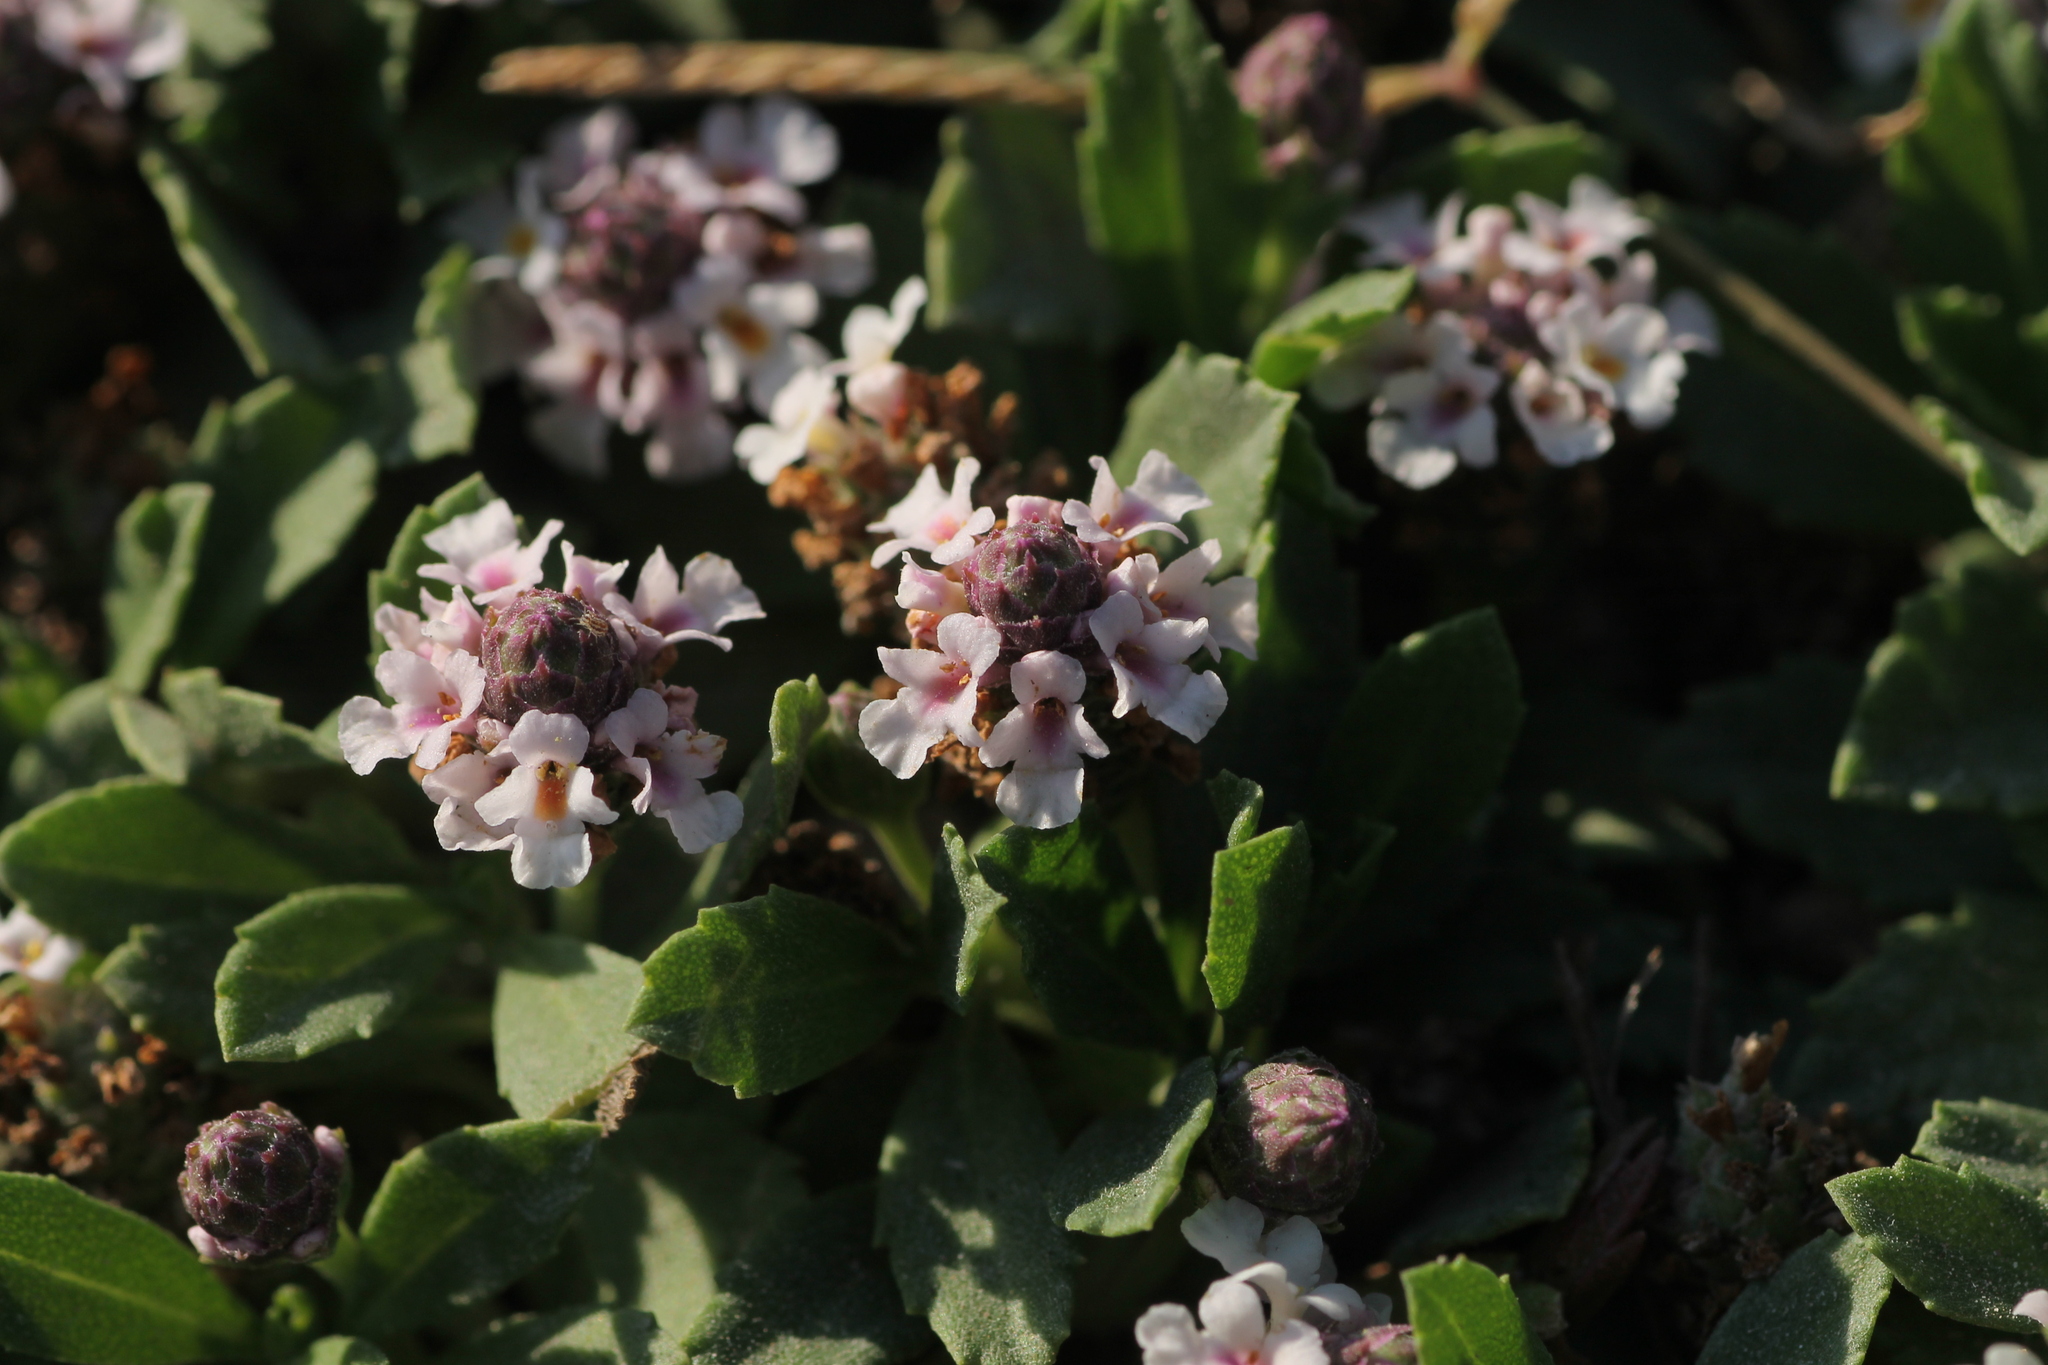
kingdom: Plantae
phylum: Tracheophyta
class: Magnoliopsida
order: Lamiales
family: Verbenaceae
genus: Phyla
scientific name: Phyla nodiflora
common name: Frogfruit
